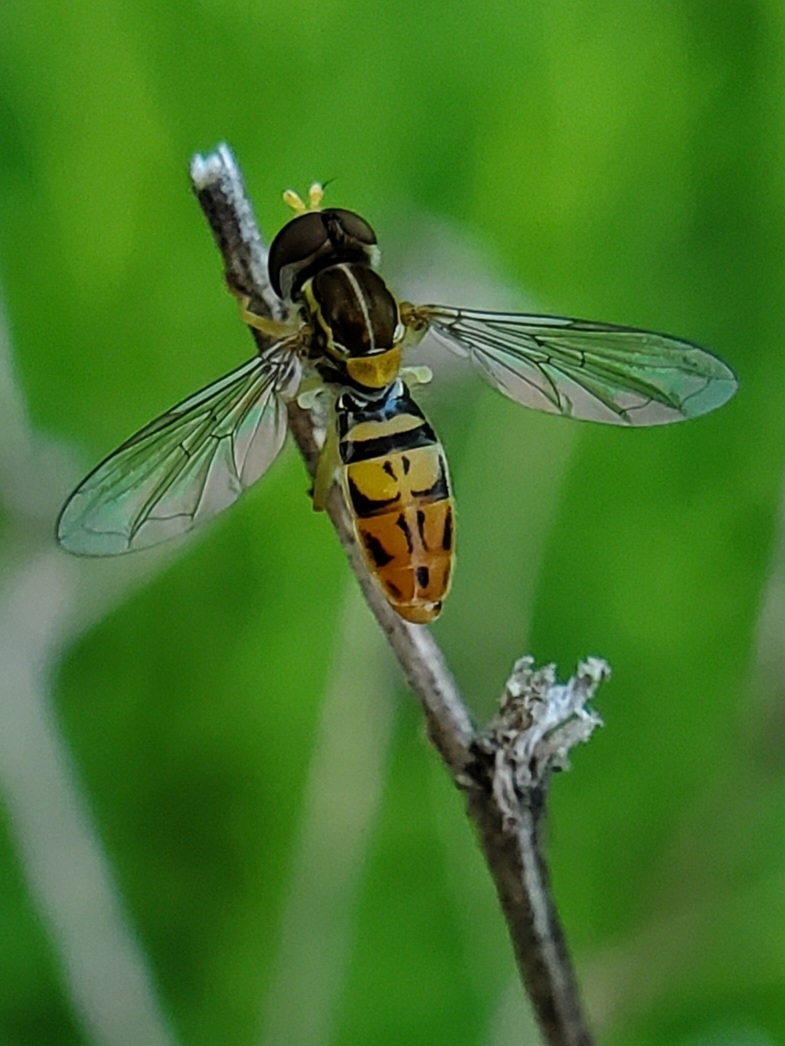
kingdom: Animalia
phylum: Arthropoda
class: Insecta
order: Diptera
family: Syrphidae
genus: Toxomerus
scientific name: Toxomerus marginatus
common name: Syrphid fly
